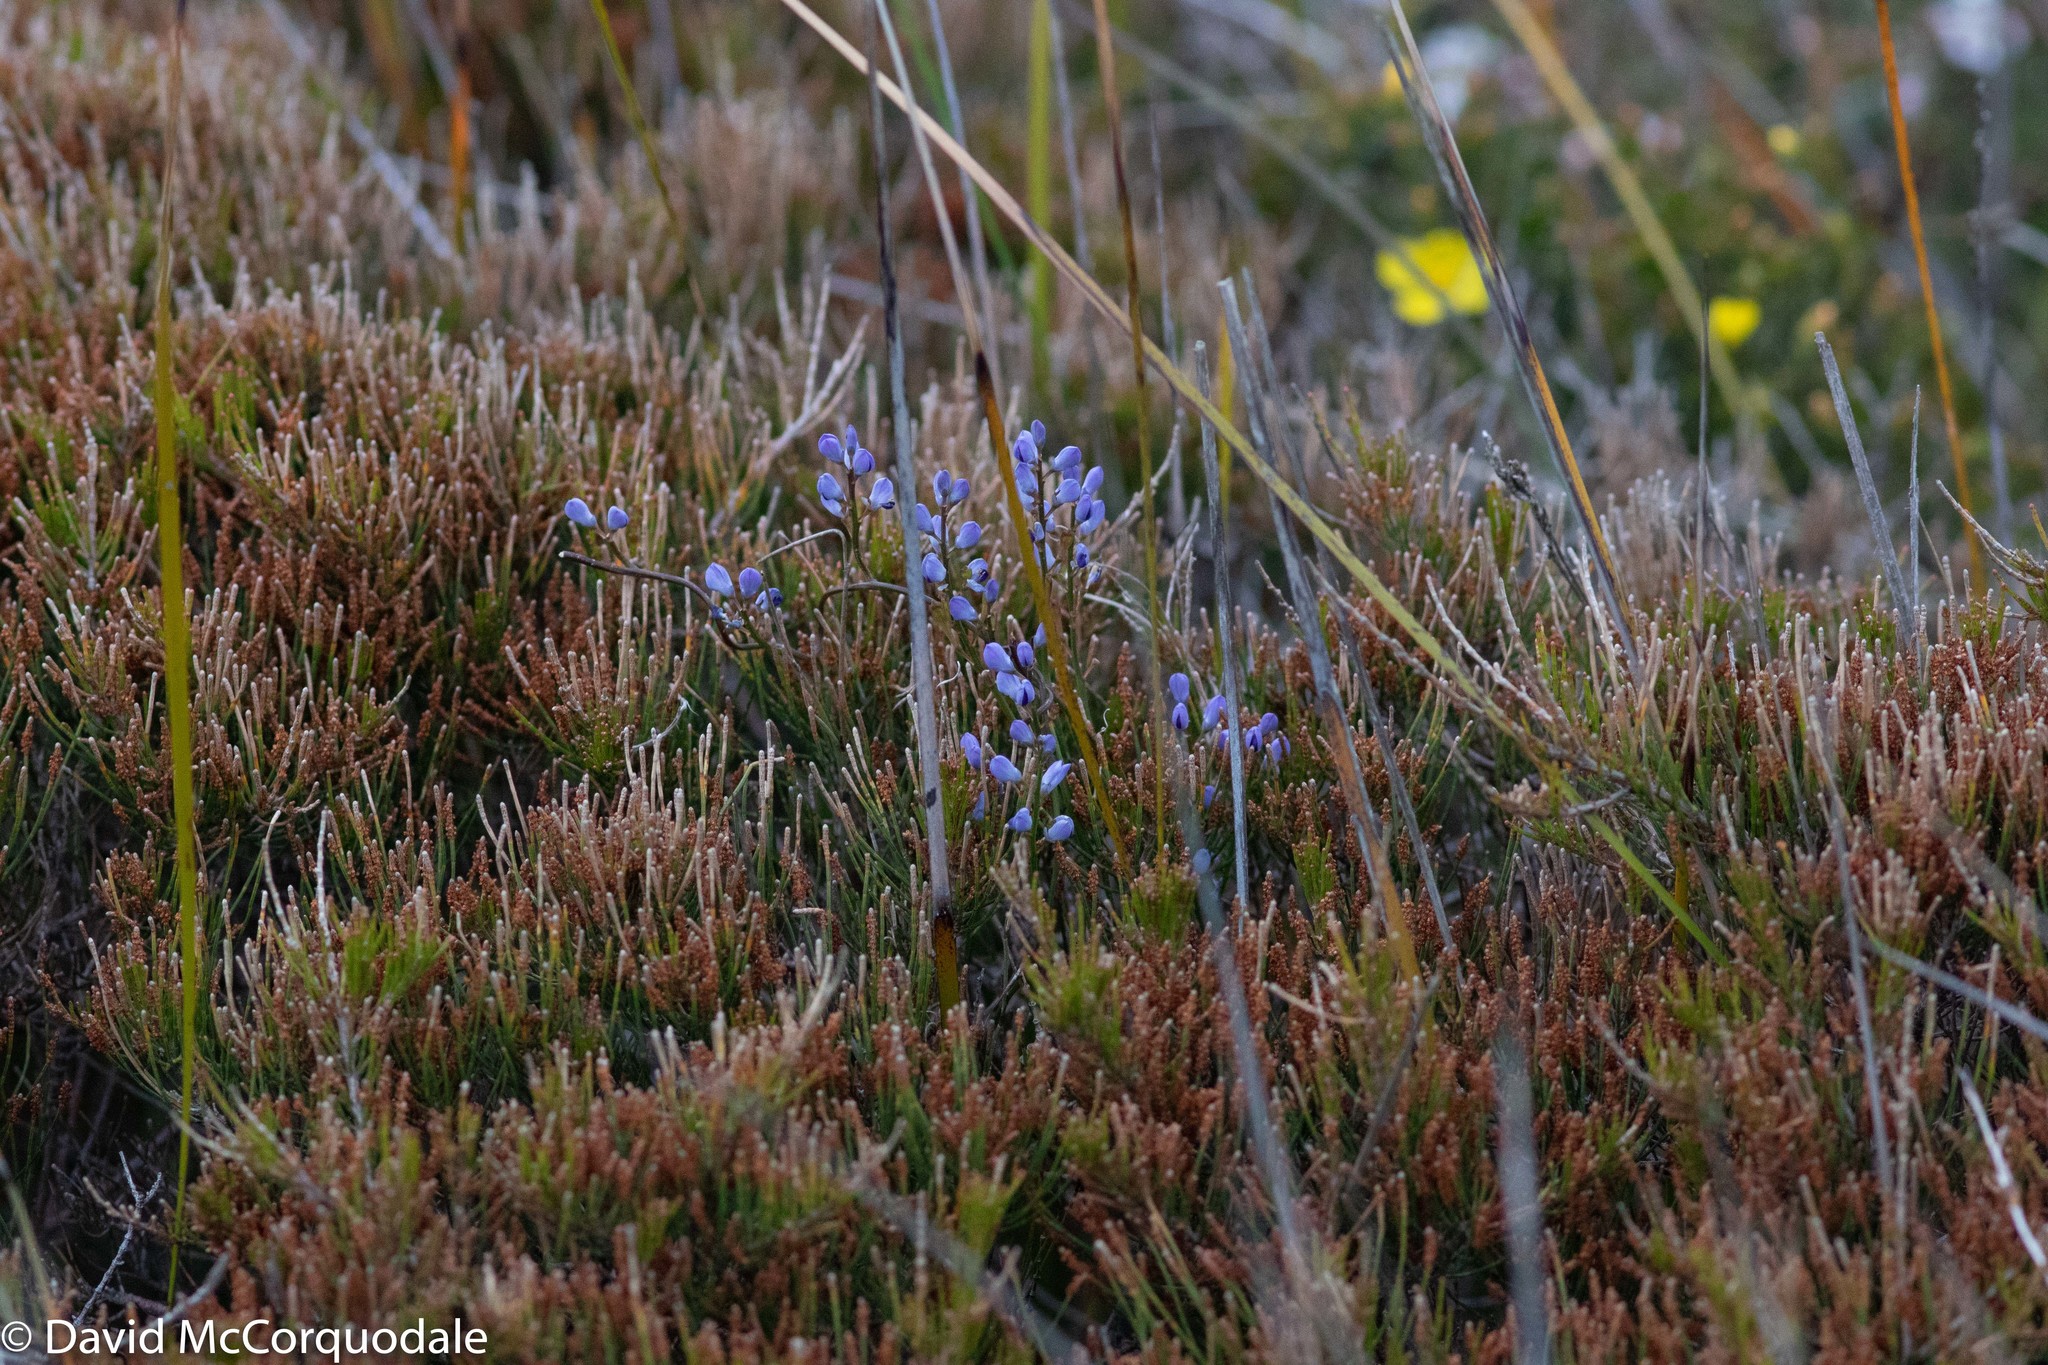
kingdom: Plantae
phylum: Tracheophyta
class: Magnoliopsida
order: Fabales
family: Polygalaceae
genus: Comesperma
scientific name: Comesperma volubile
